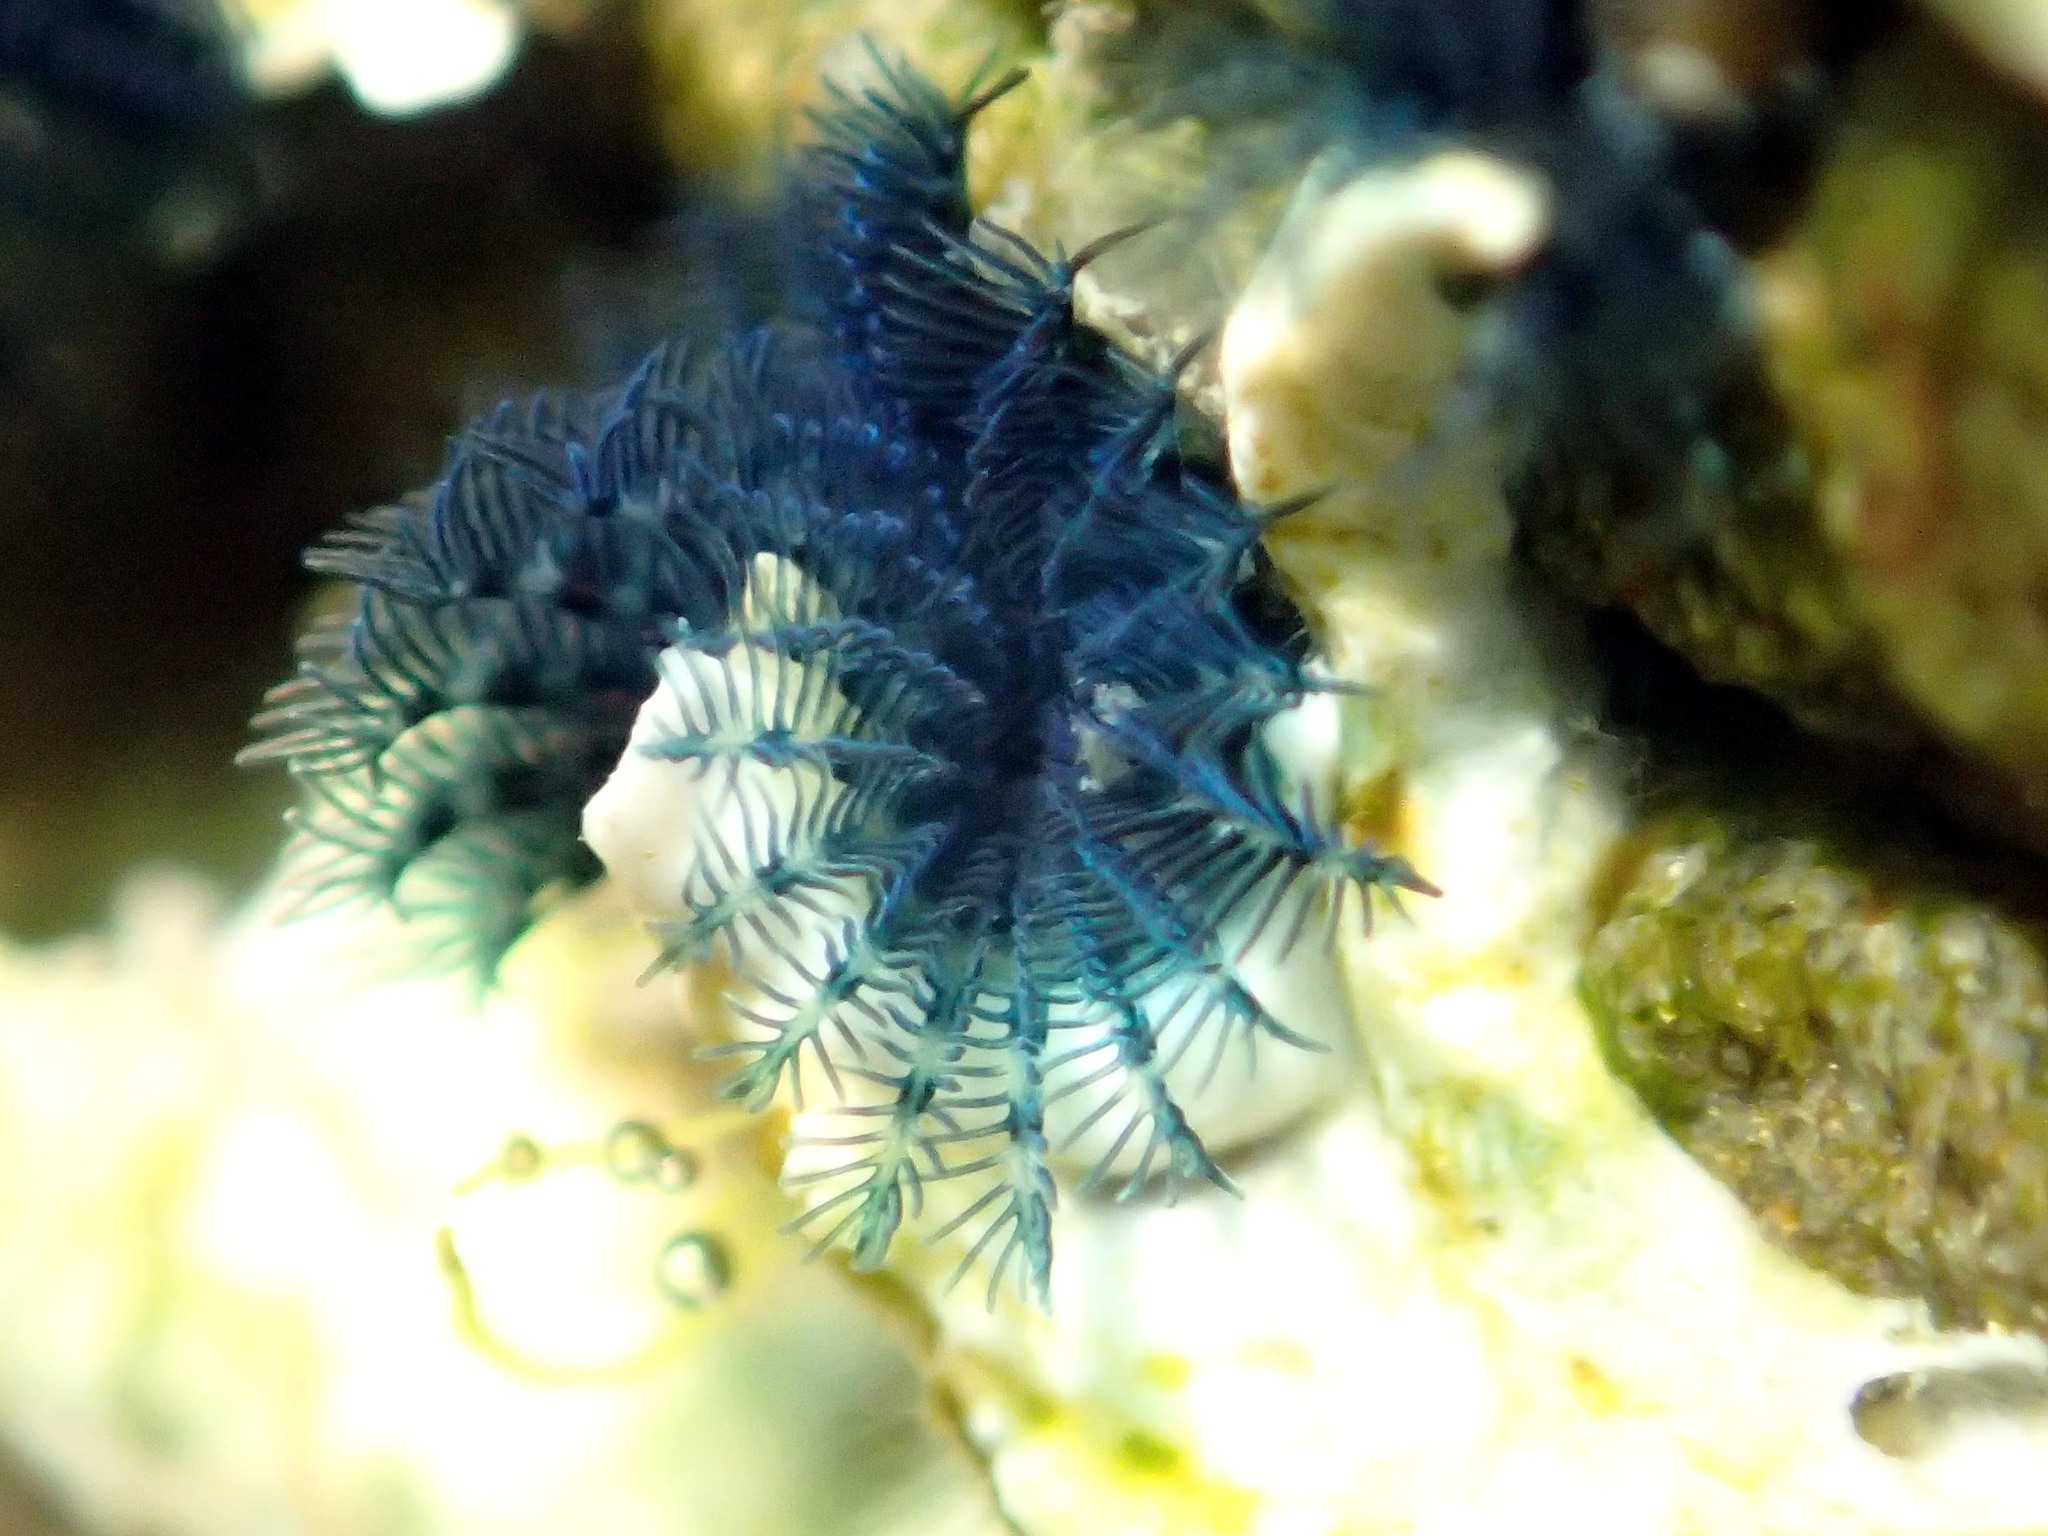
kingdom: Animalia
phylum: Annelida
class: Polychaeta
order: Sabellida
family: Serpulidae
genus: Spirobranchus
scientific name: Spirobranchus cariniferus
